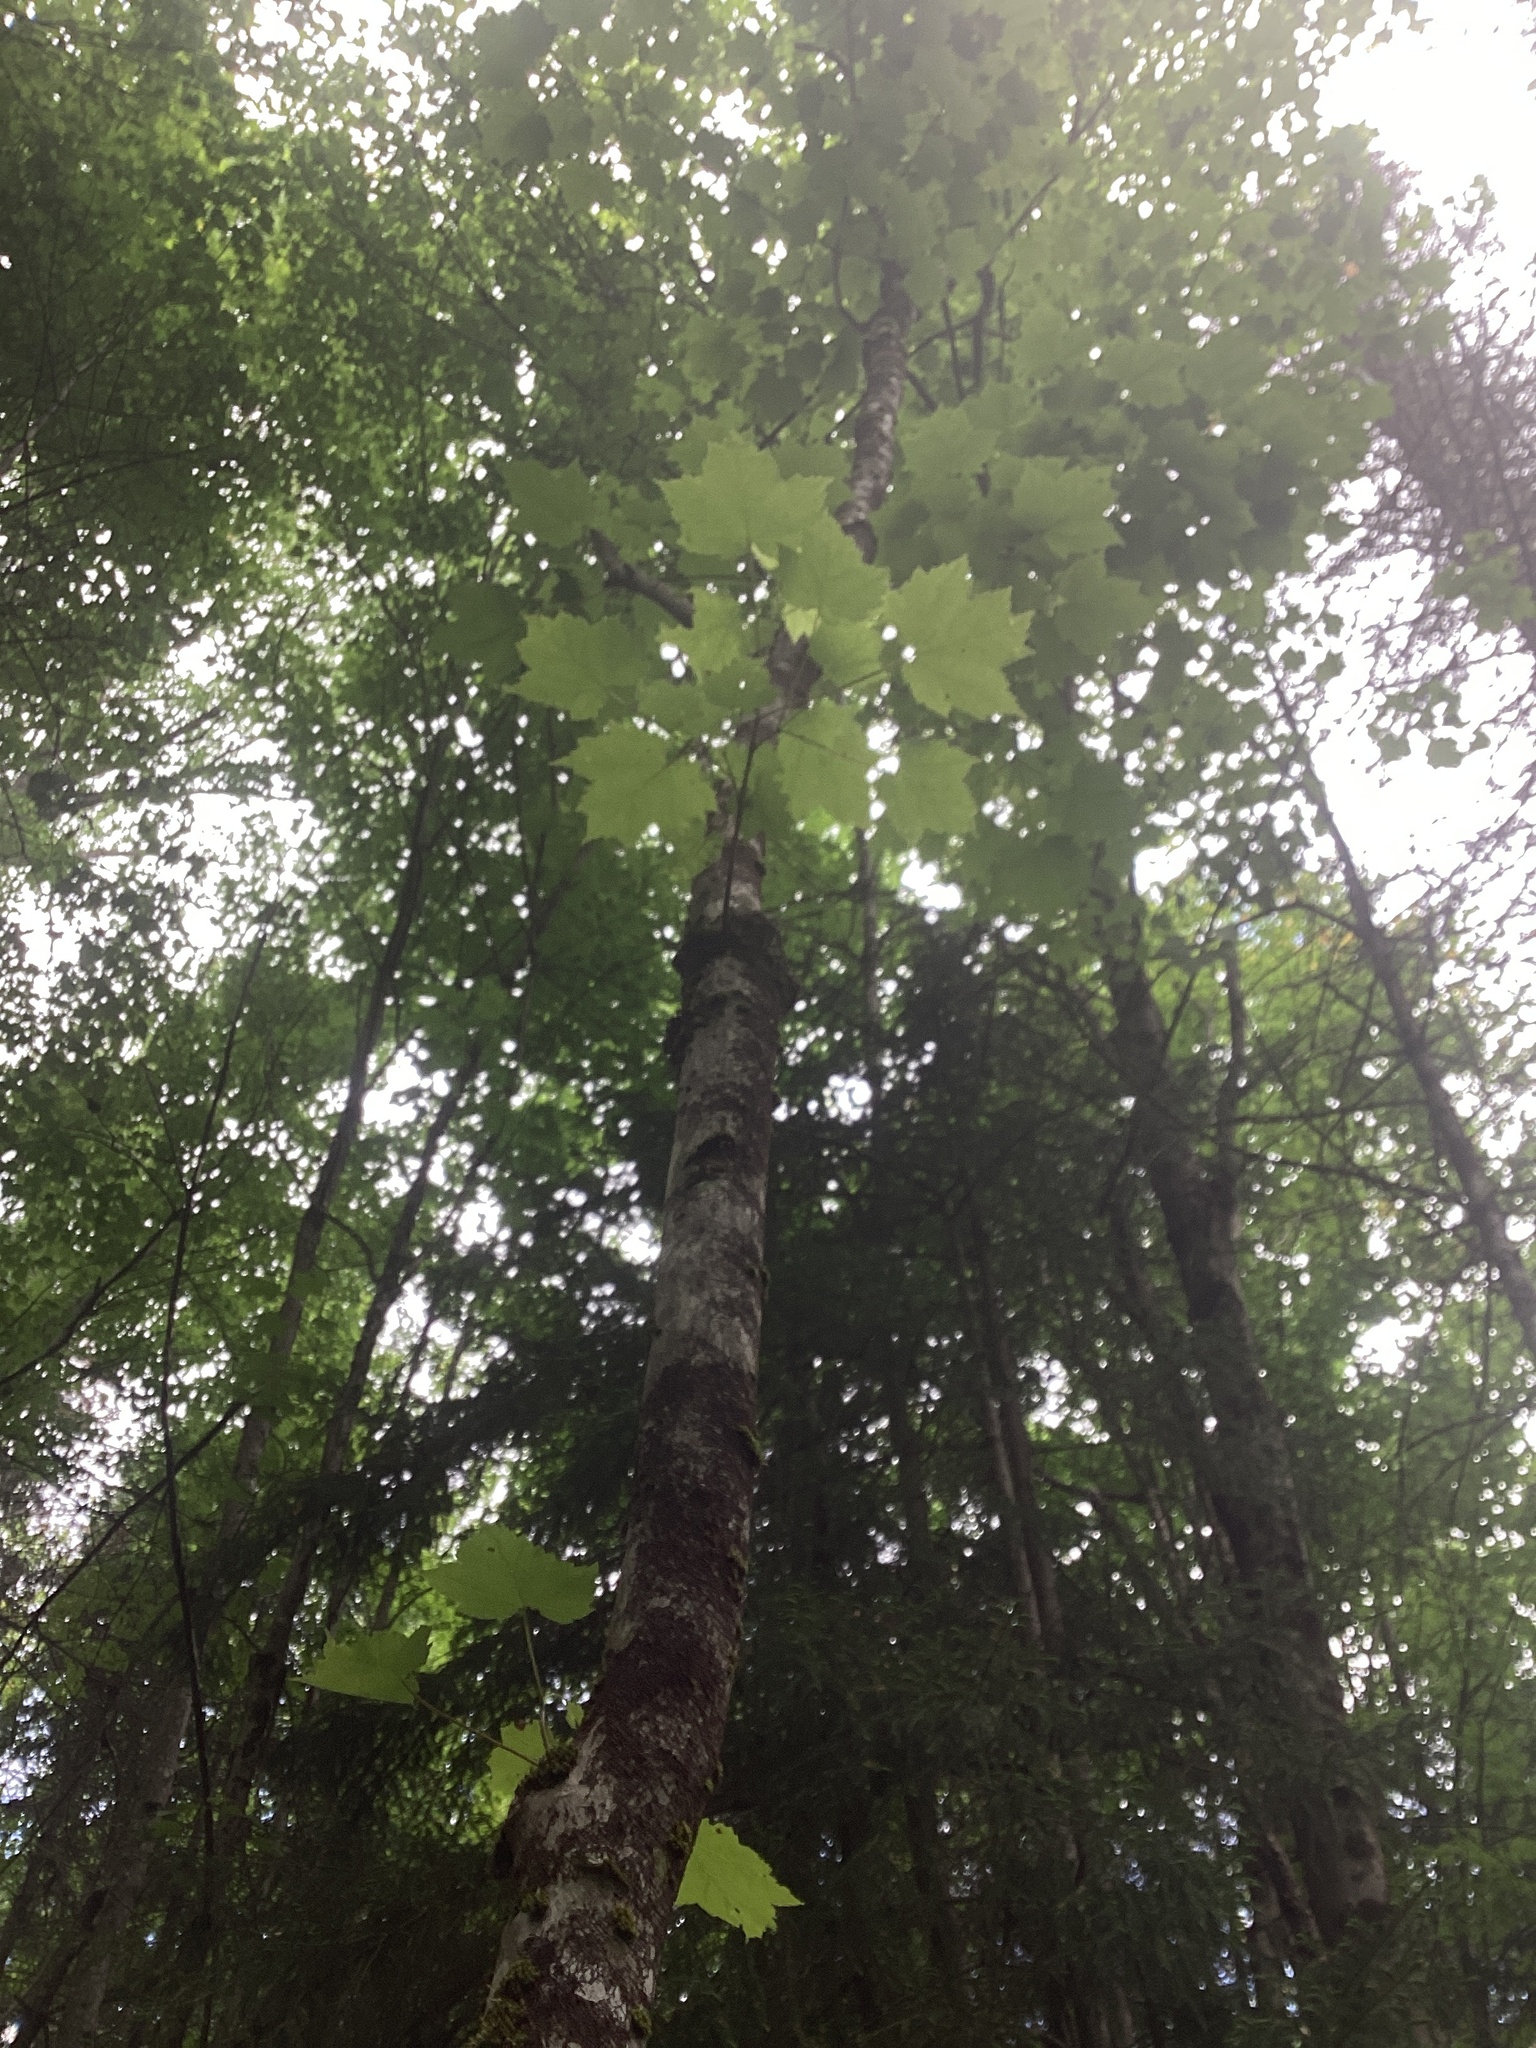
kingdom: Plantae
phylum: Tracheophyta
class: Magnoliopsida
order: Sapindales
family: Sapindaceae
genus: Acer
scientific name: Acer rubrum
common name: Red maple
